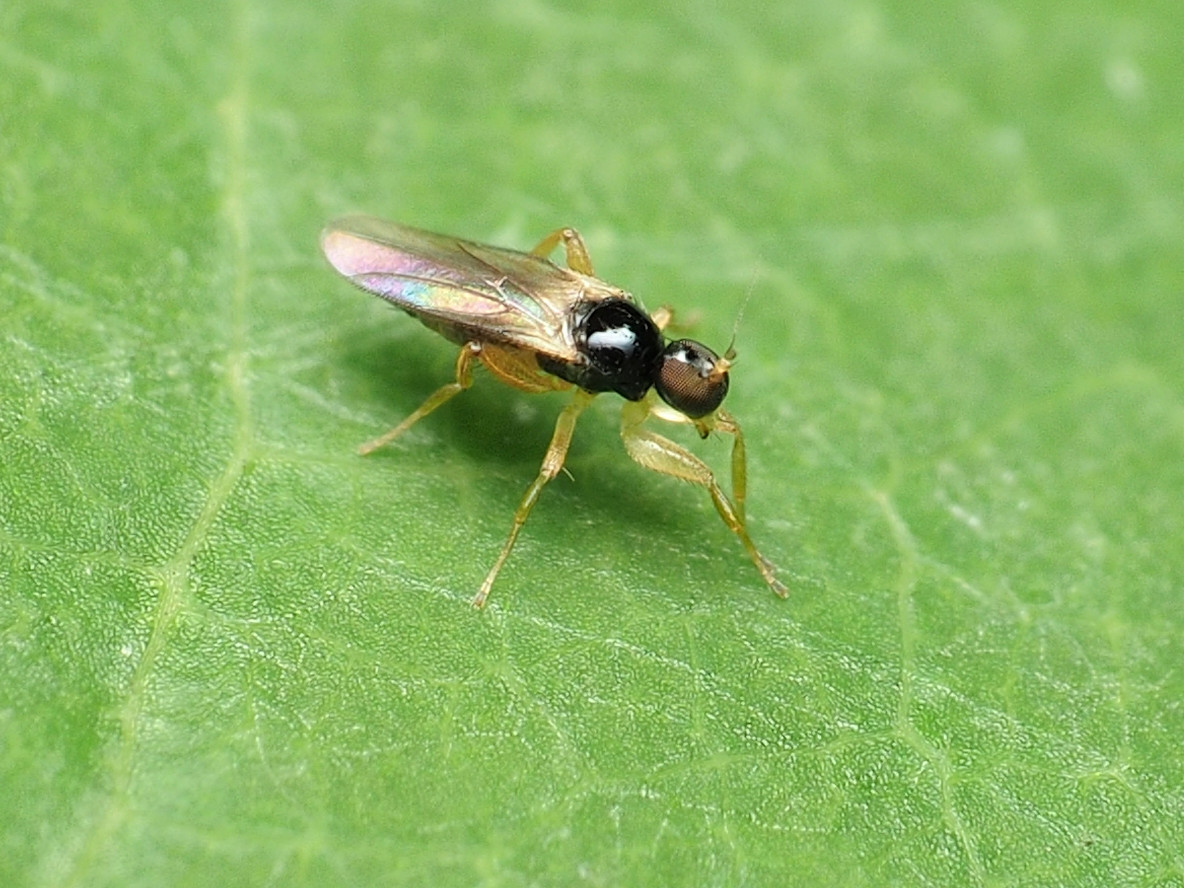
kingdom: Animalia
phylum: Arthropoda
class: Insecta
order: Diptera
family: Hybotidae
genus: Stilpon
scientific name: Stilpon tyconyx
